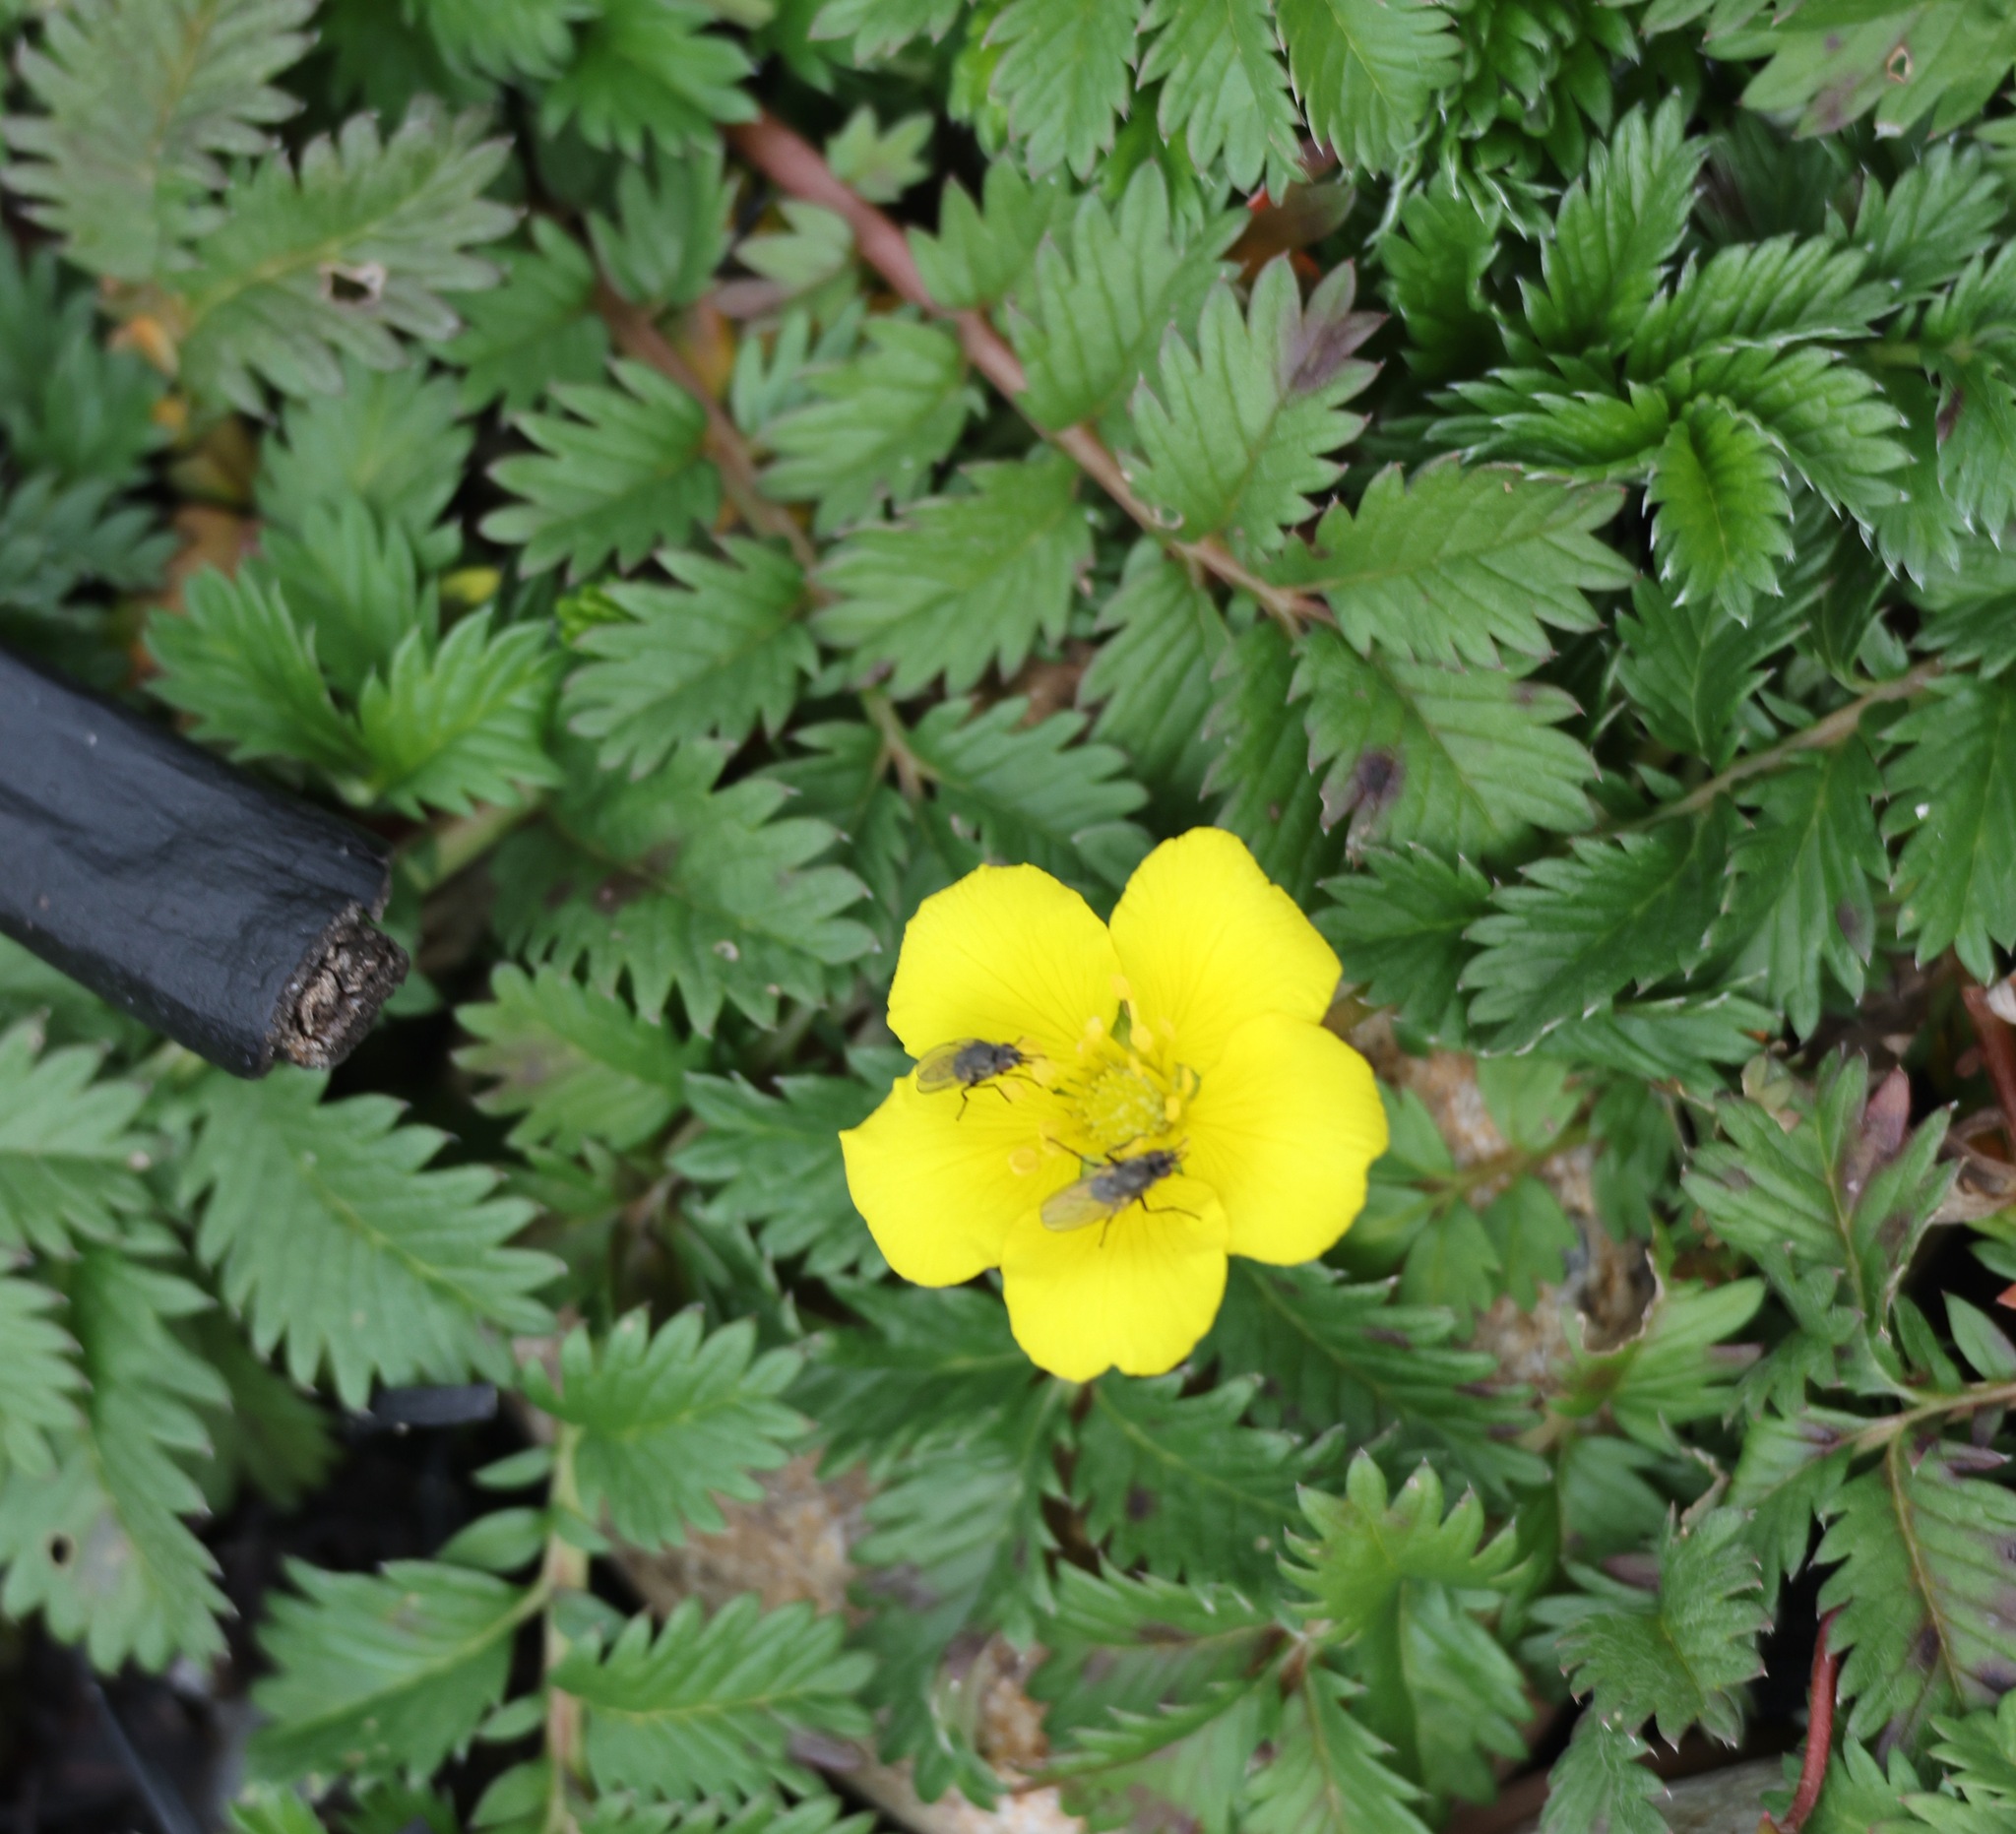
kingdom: Plantae
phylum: Tracheophyta
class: Magnoliopsida
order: Rosales
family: Rosaceae
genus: Argentina
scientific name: Argentina anserina
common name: Common silverweed
